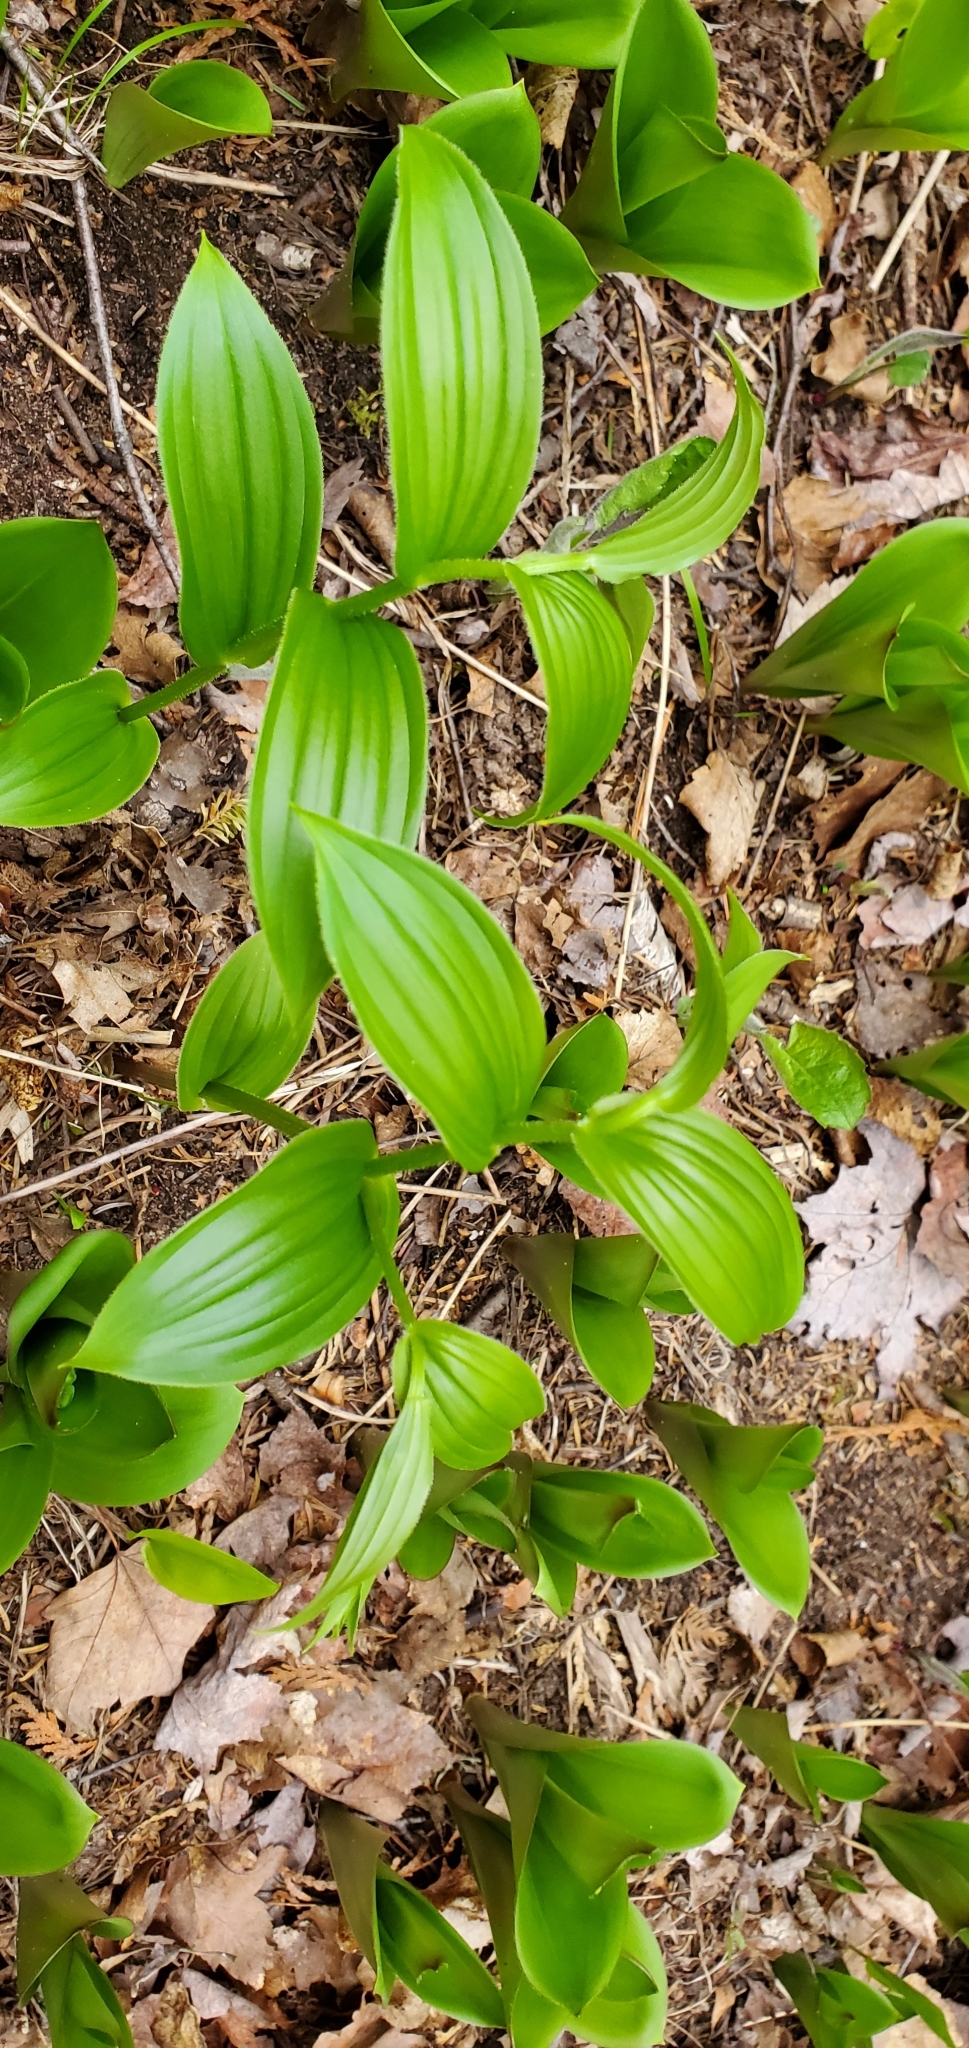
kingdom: Plantae
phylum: Tracheophyta
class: Liliopsida
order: Liliales
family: Liliaceae
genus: Streptopus
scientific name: Streptopus lanceolatus
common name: Rose mandarin
